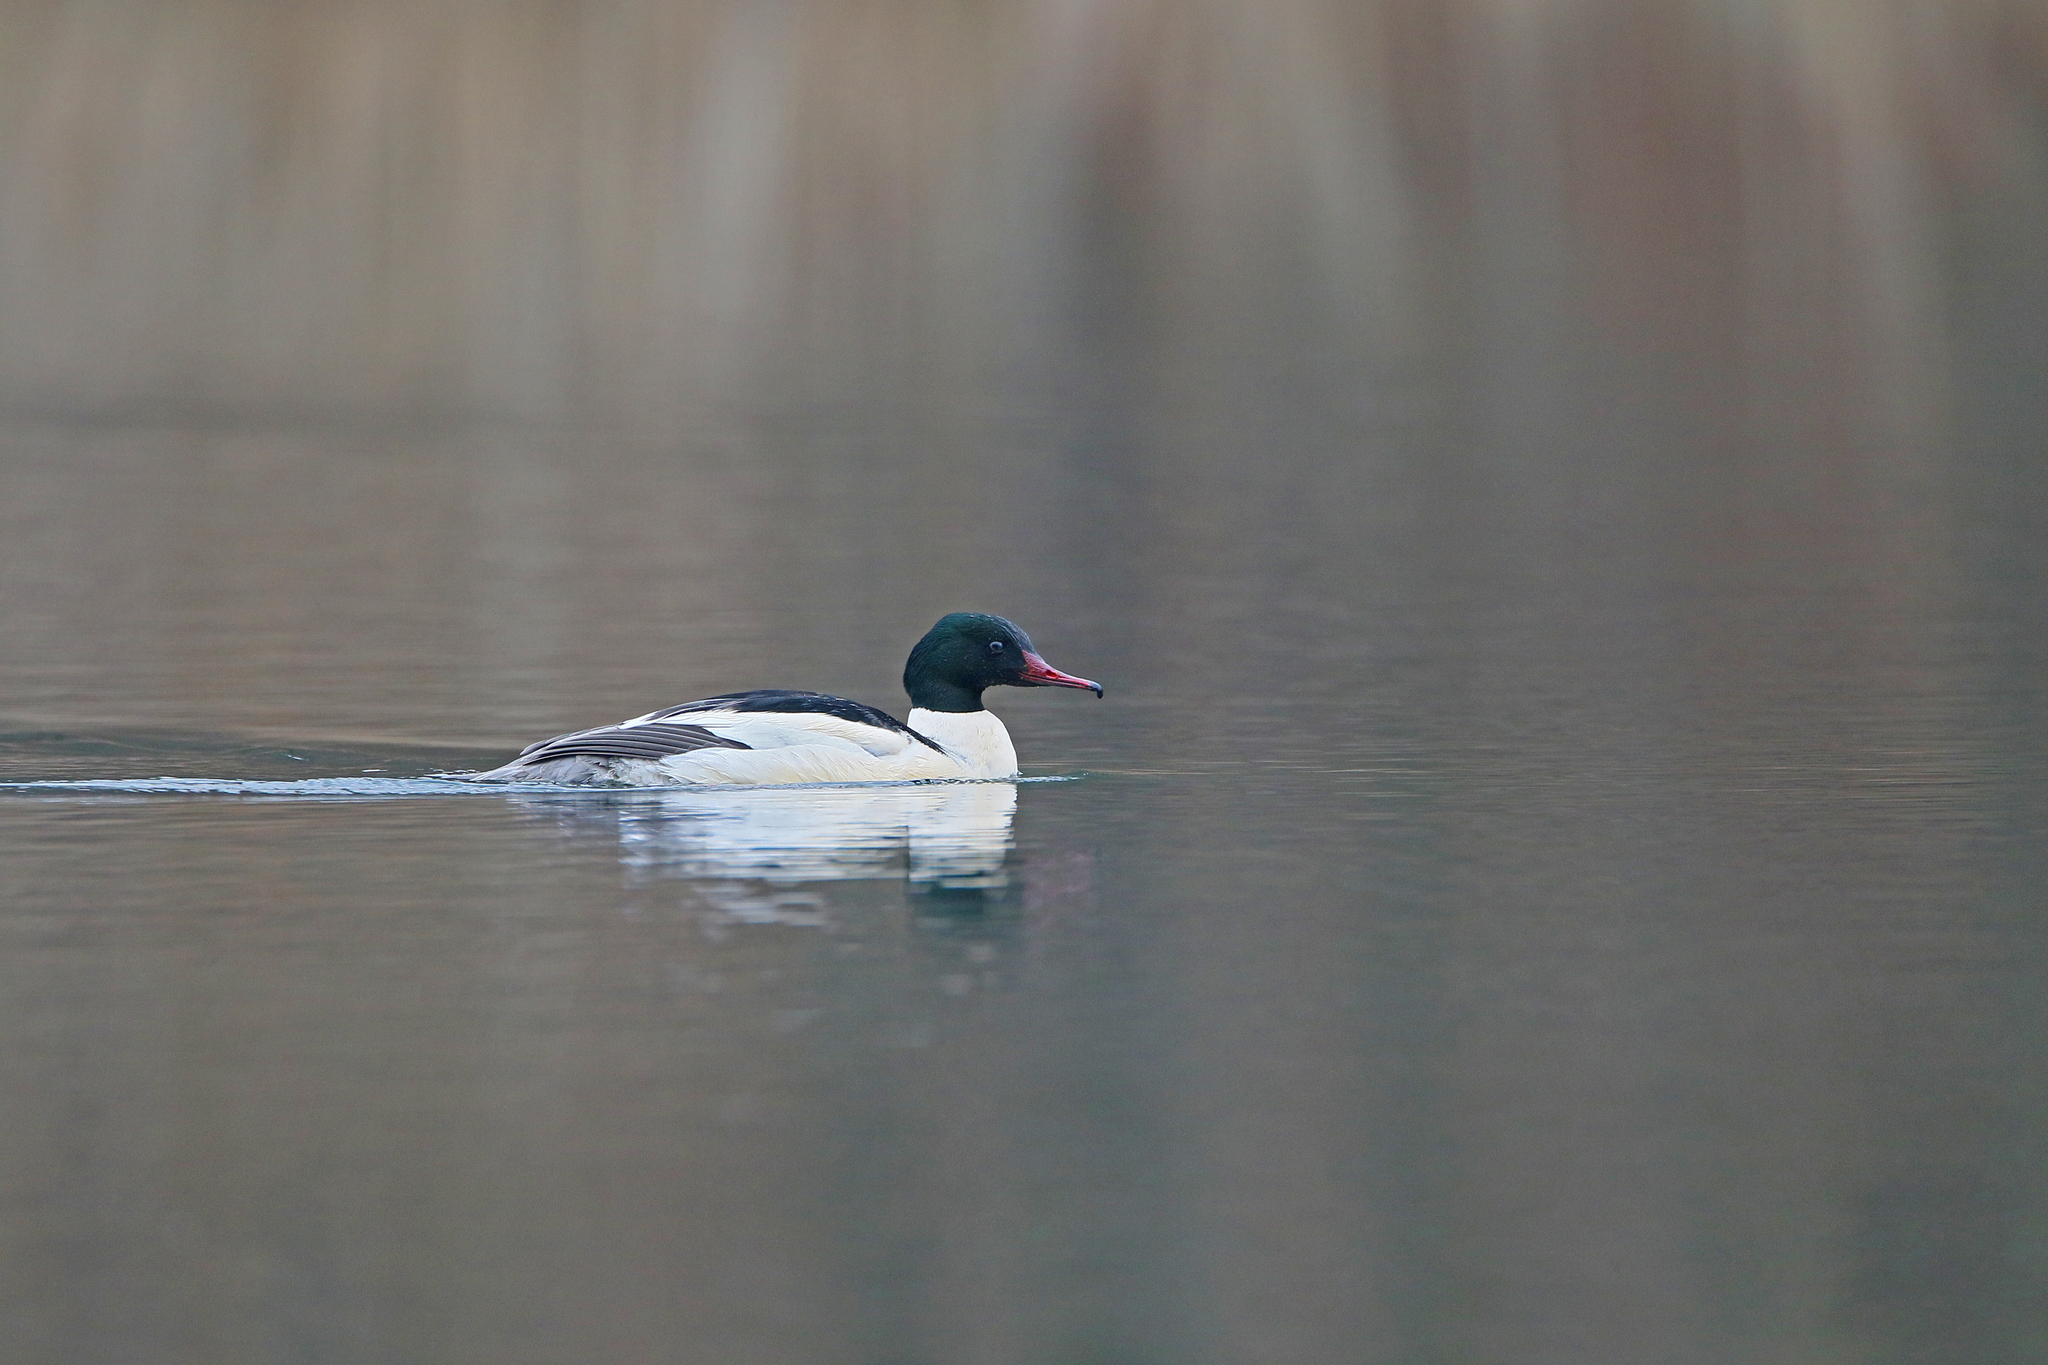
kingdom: Animalia
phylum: Chordata
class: Aves
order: Anseriformes
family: Anatidae
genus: Mergus
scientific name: Mergus merganser
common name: Common merganser
